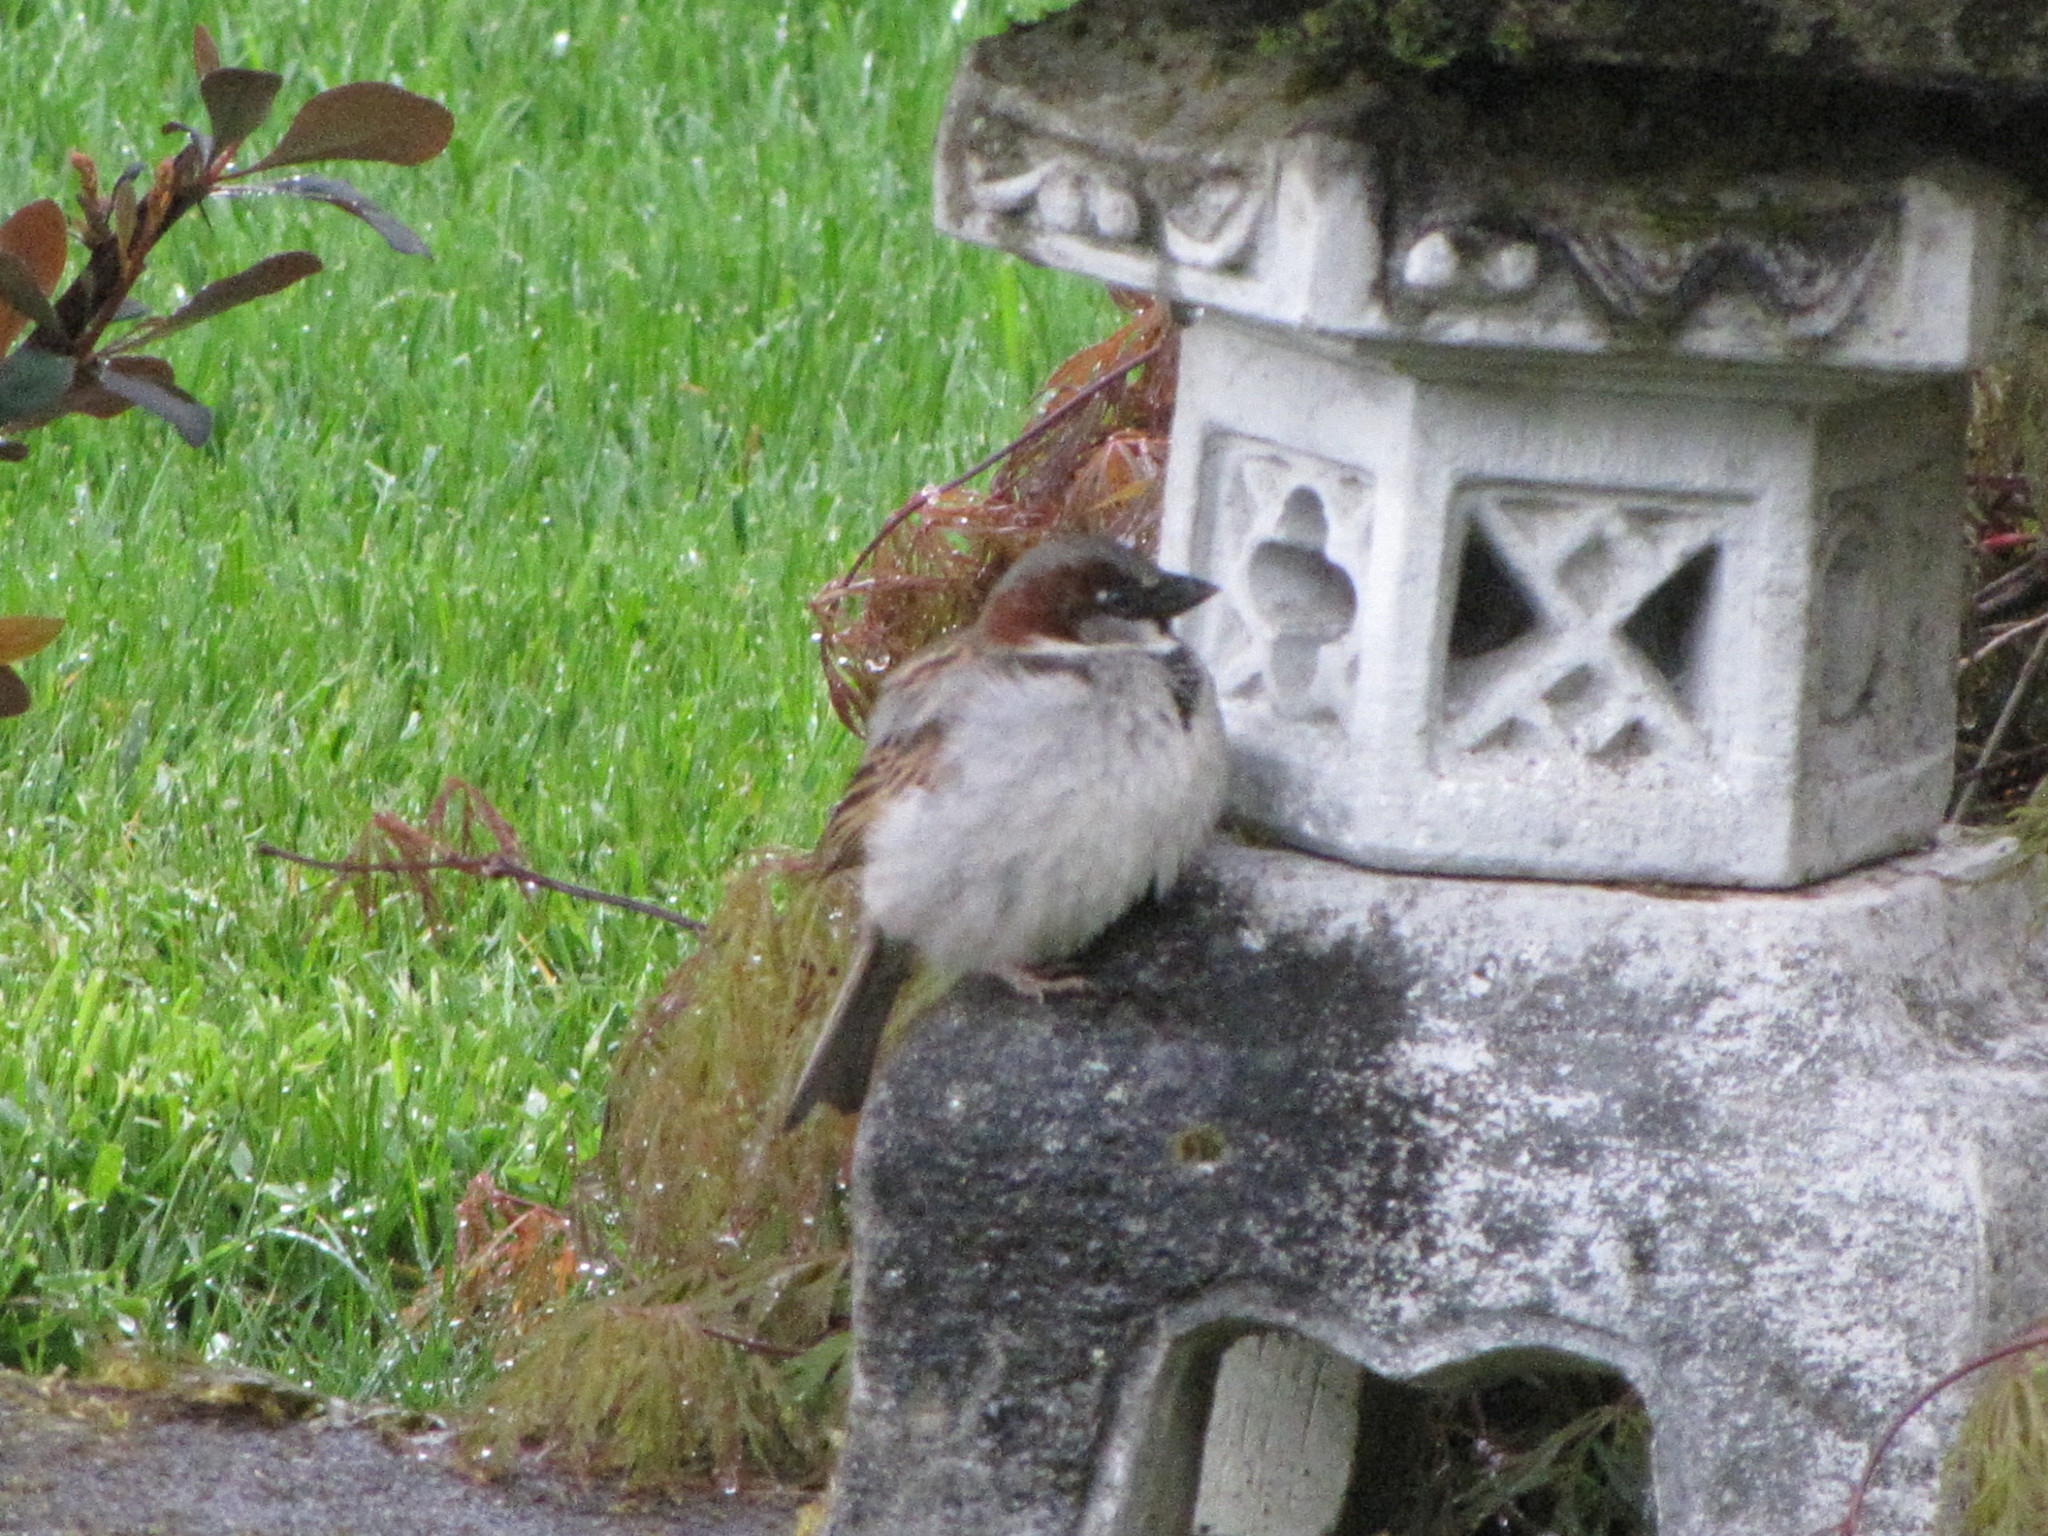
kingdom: Animalia
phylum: Chordata
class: Aves
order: Passeriformes
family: Passeridae
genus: Passer
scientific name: Passer domesticus
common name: House sparrow
